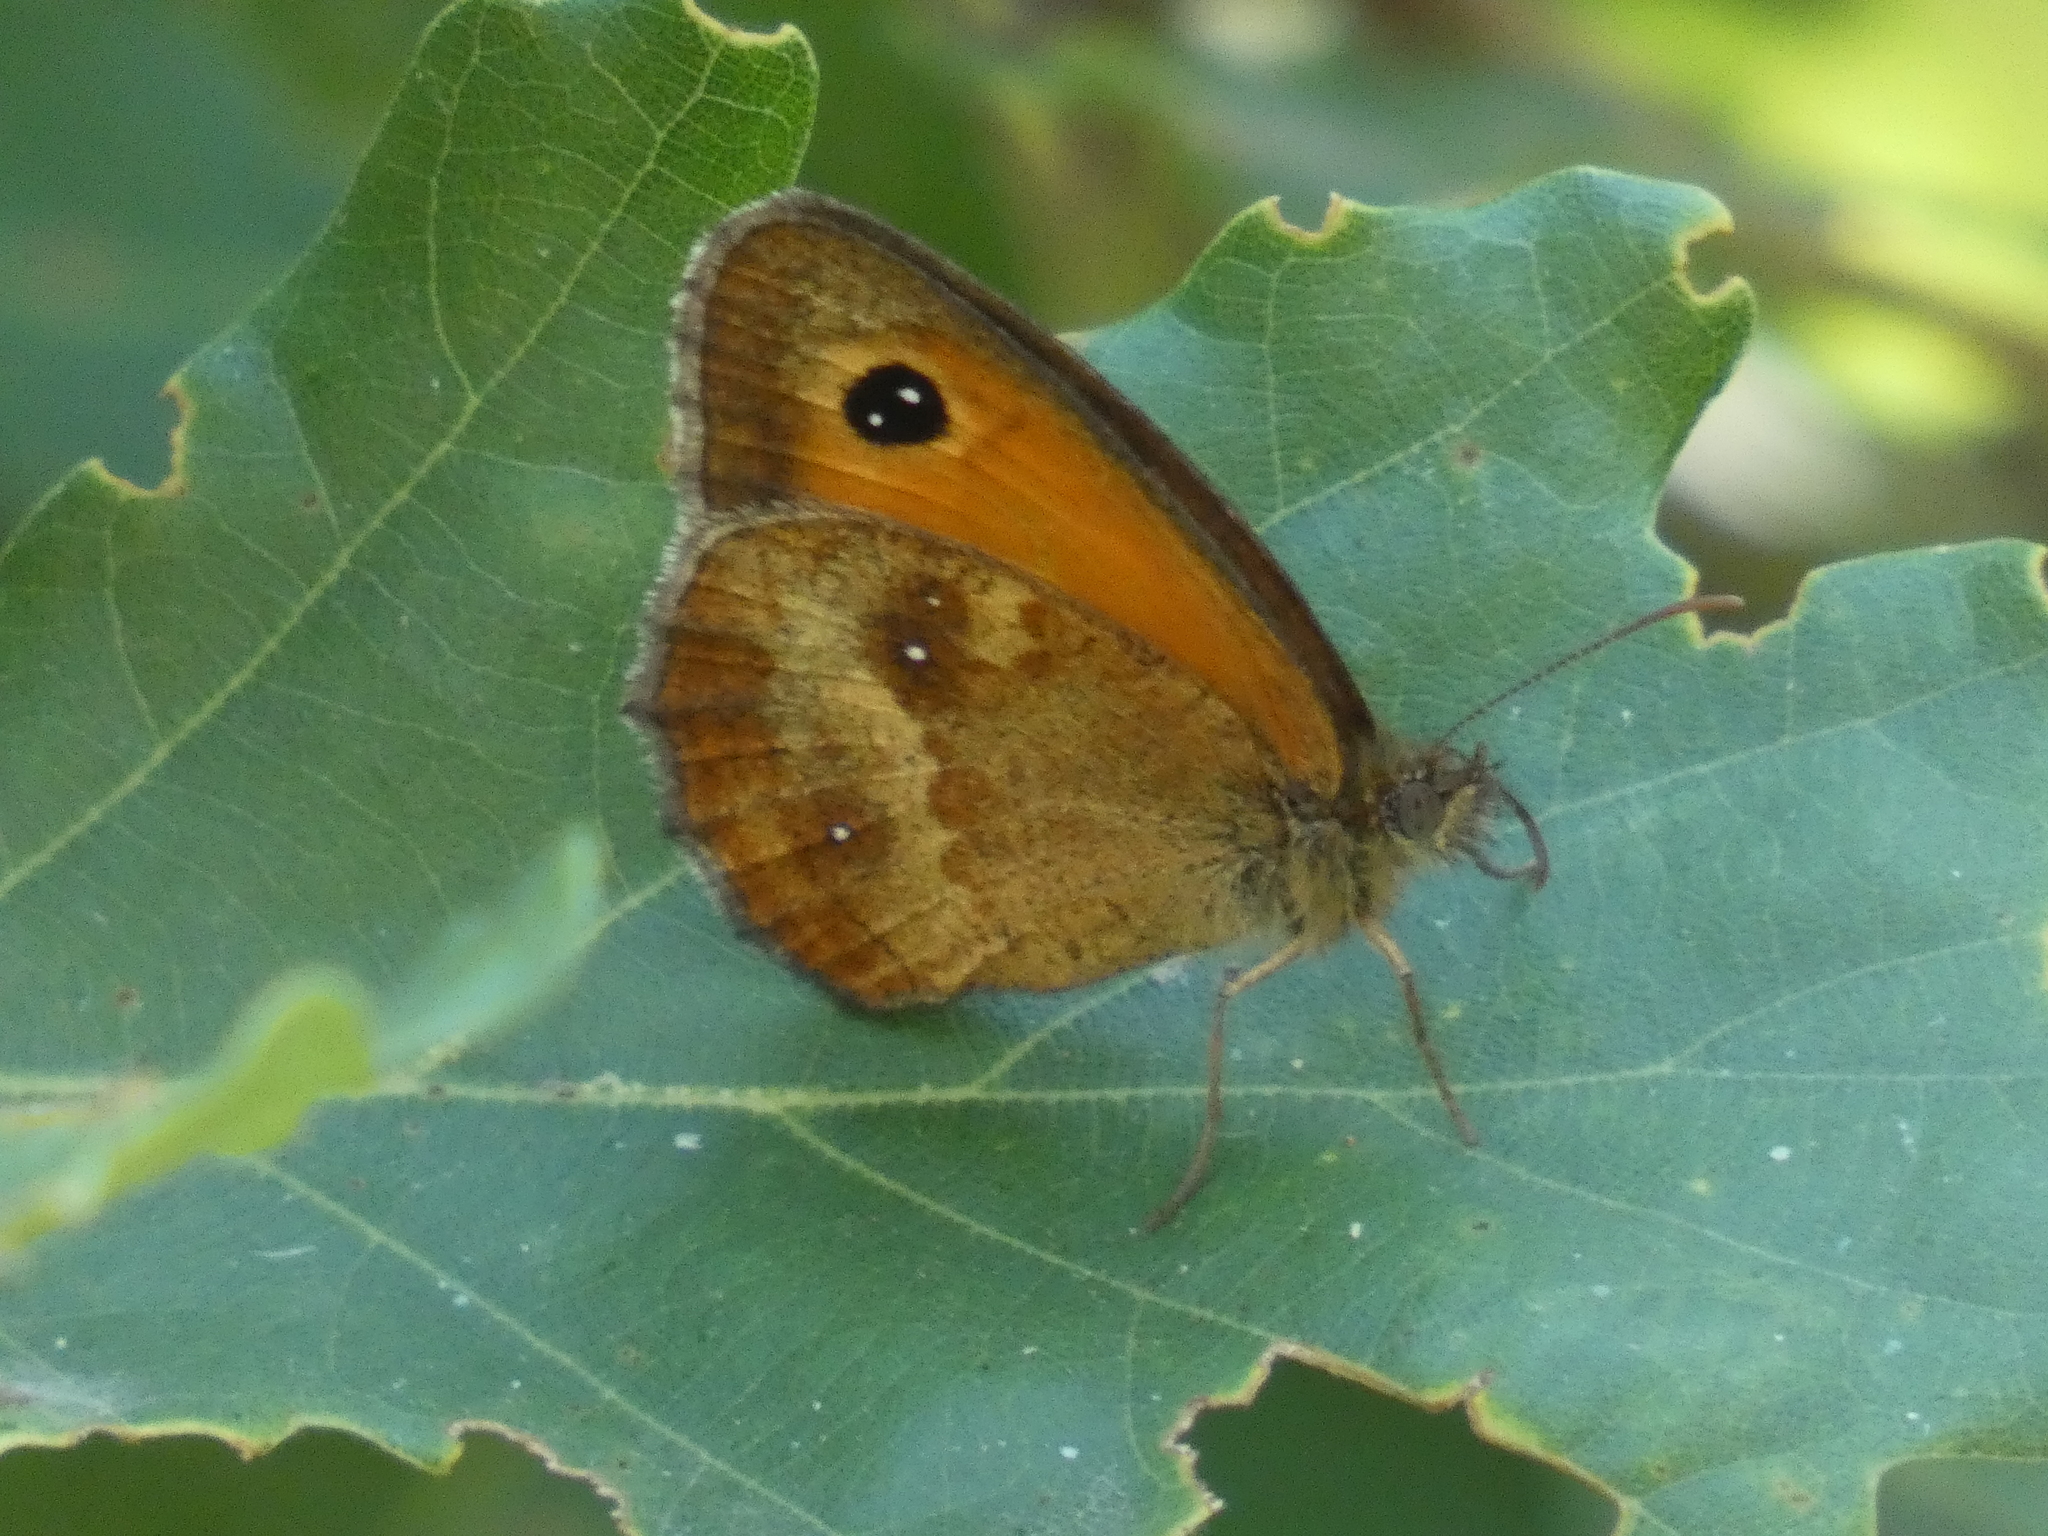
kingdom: Animalia
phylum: Arthropoda
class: Insecta
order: Lepidoptera
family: Nymphalidae
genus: Pyronia
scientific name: Pyronia tithonus
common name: Gatekeeper
